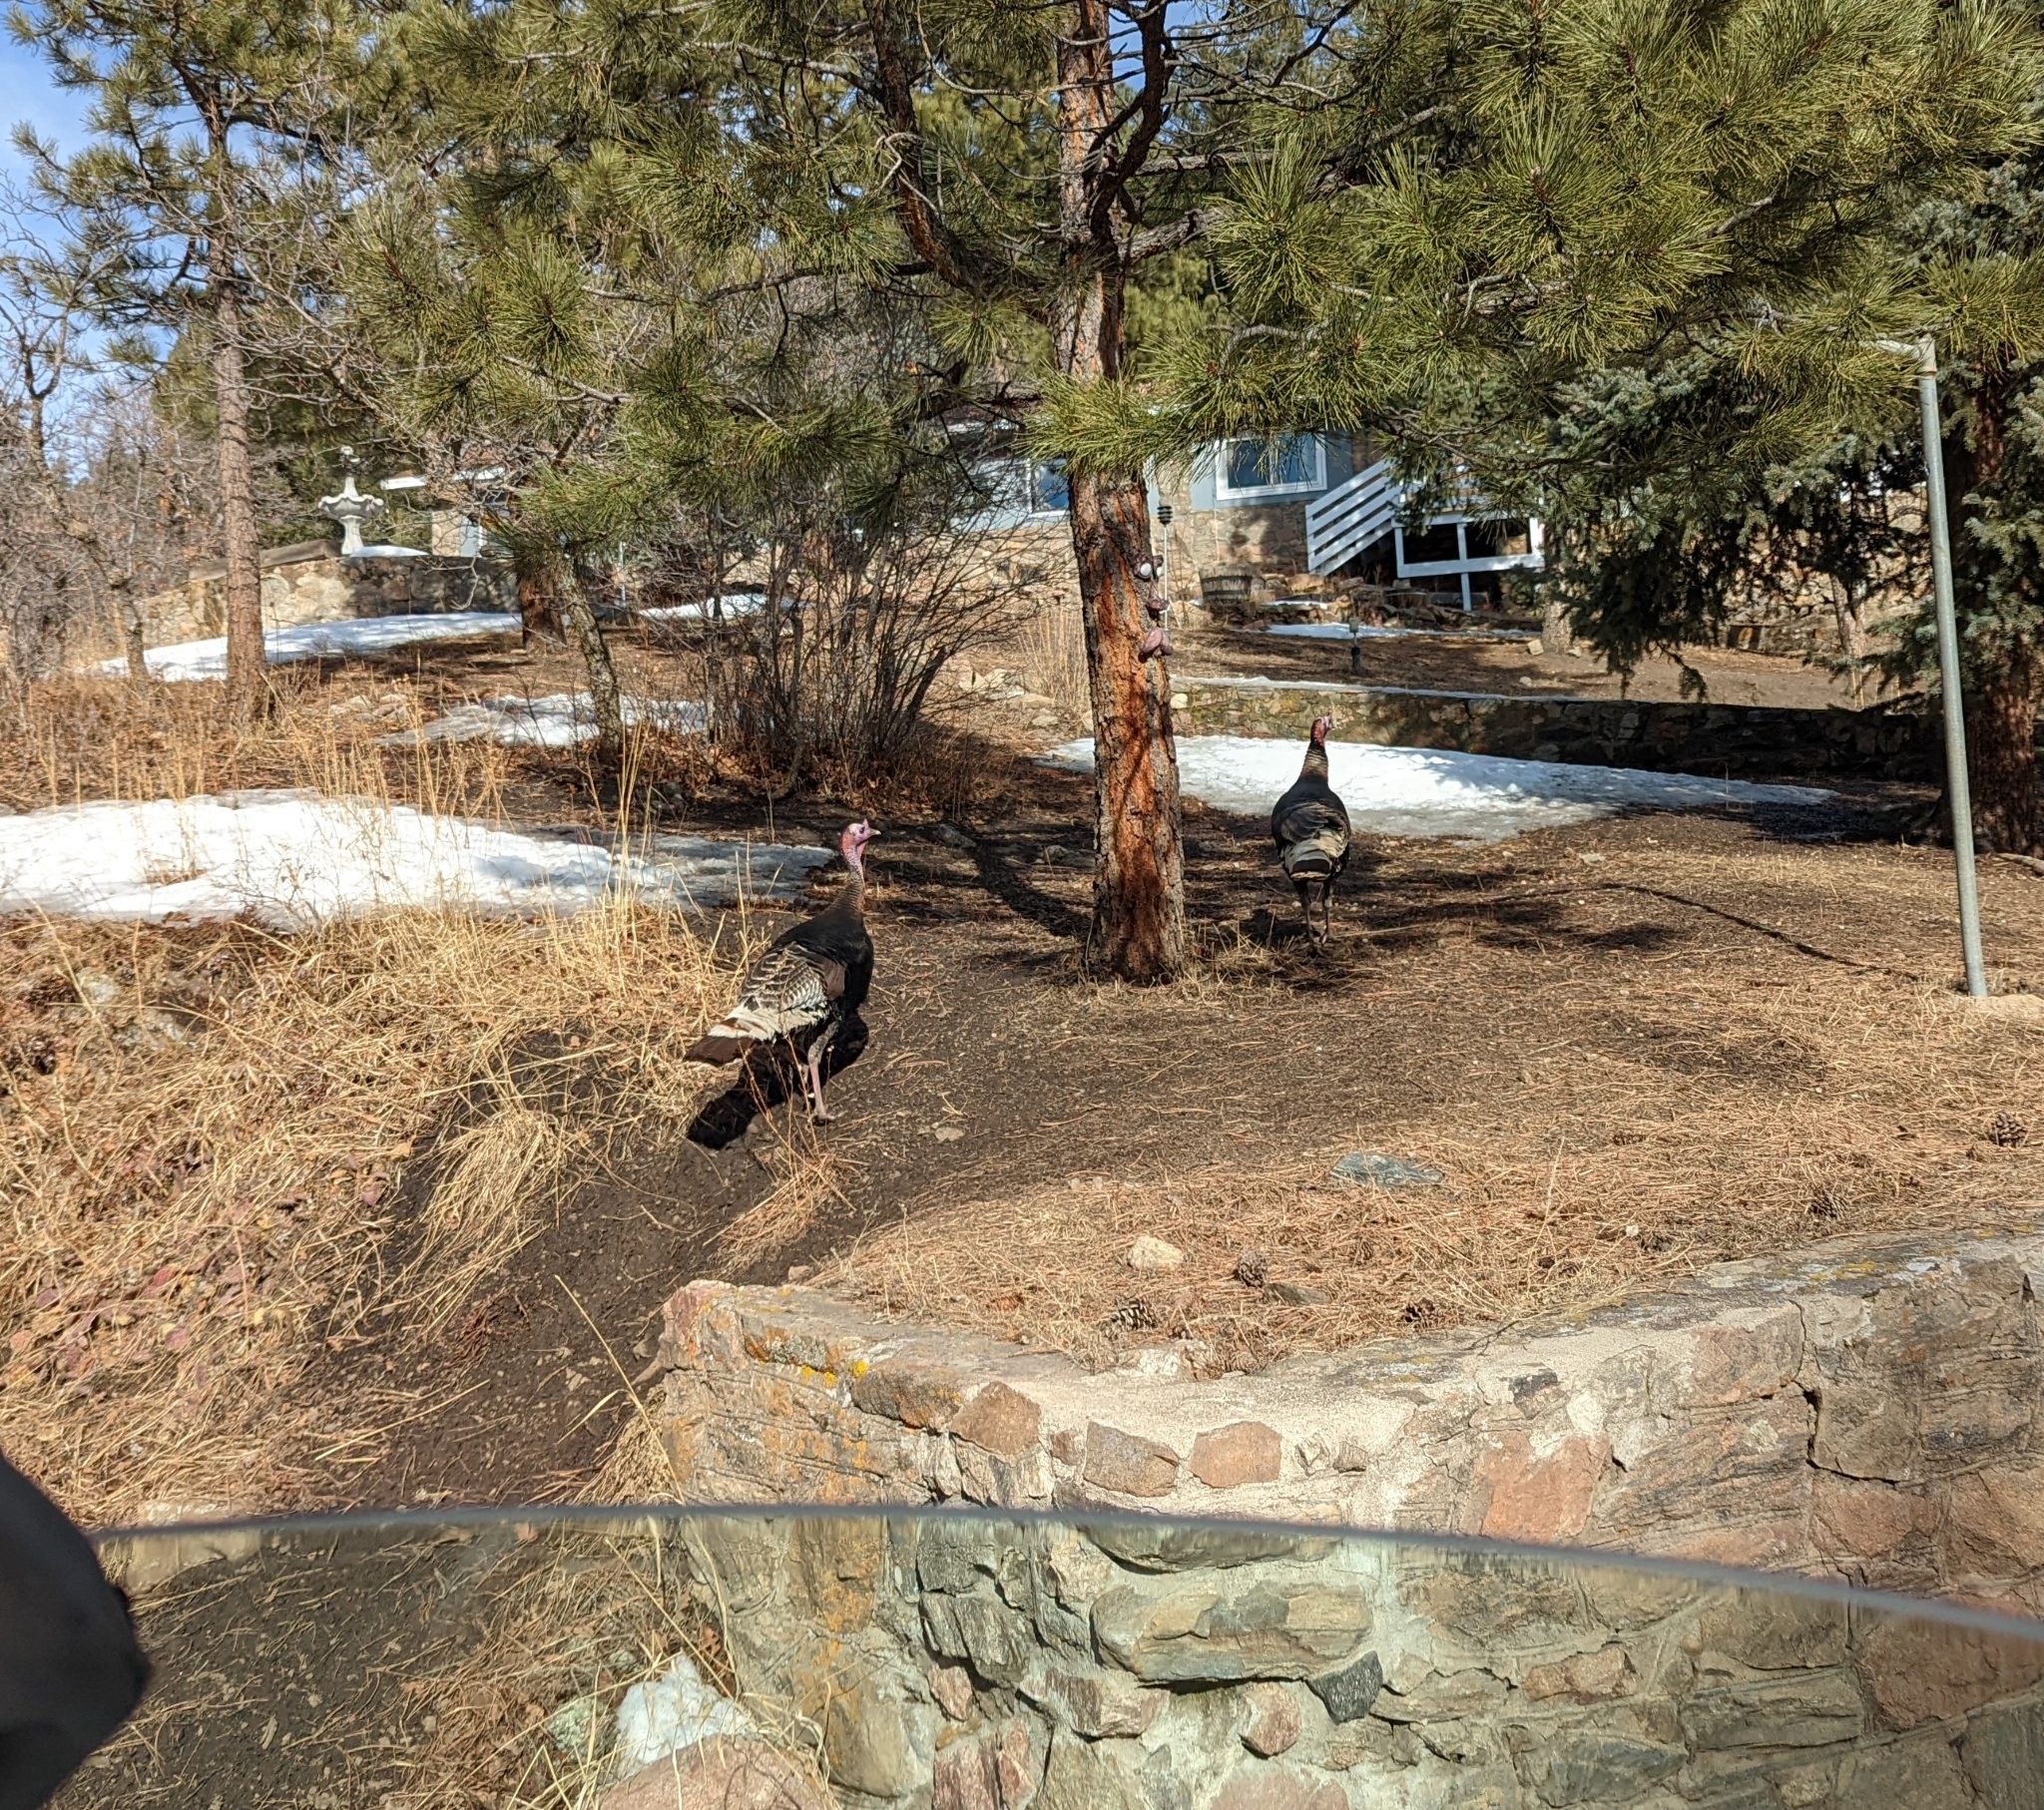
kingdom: Animalia
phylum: Chordata
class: Aves
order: Galliformes
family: Phasianidae
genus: Meleagris
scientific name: Meleagris gallopavo
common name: Wild turkey
